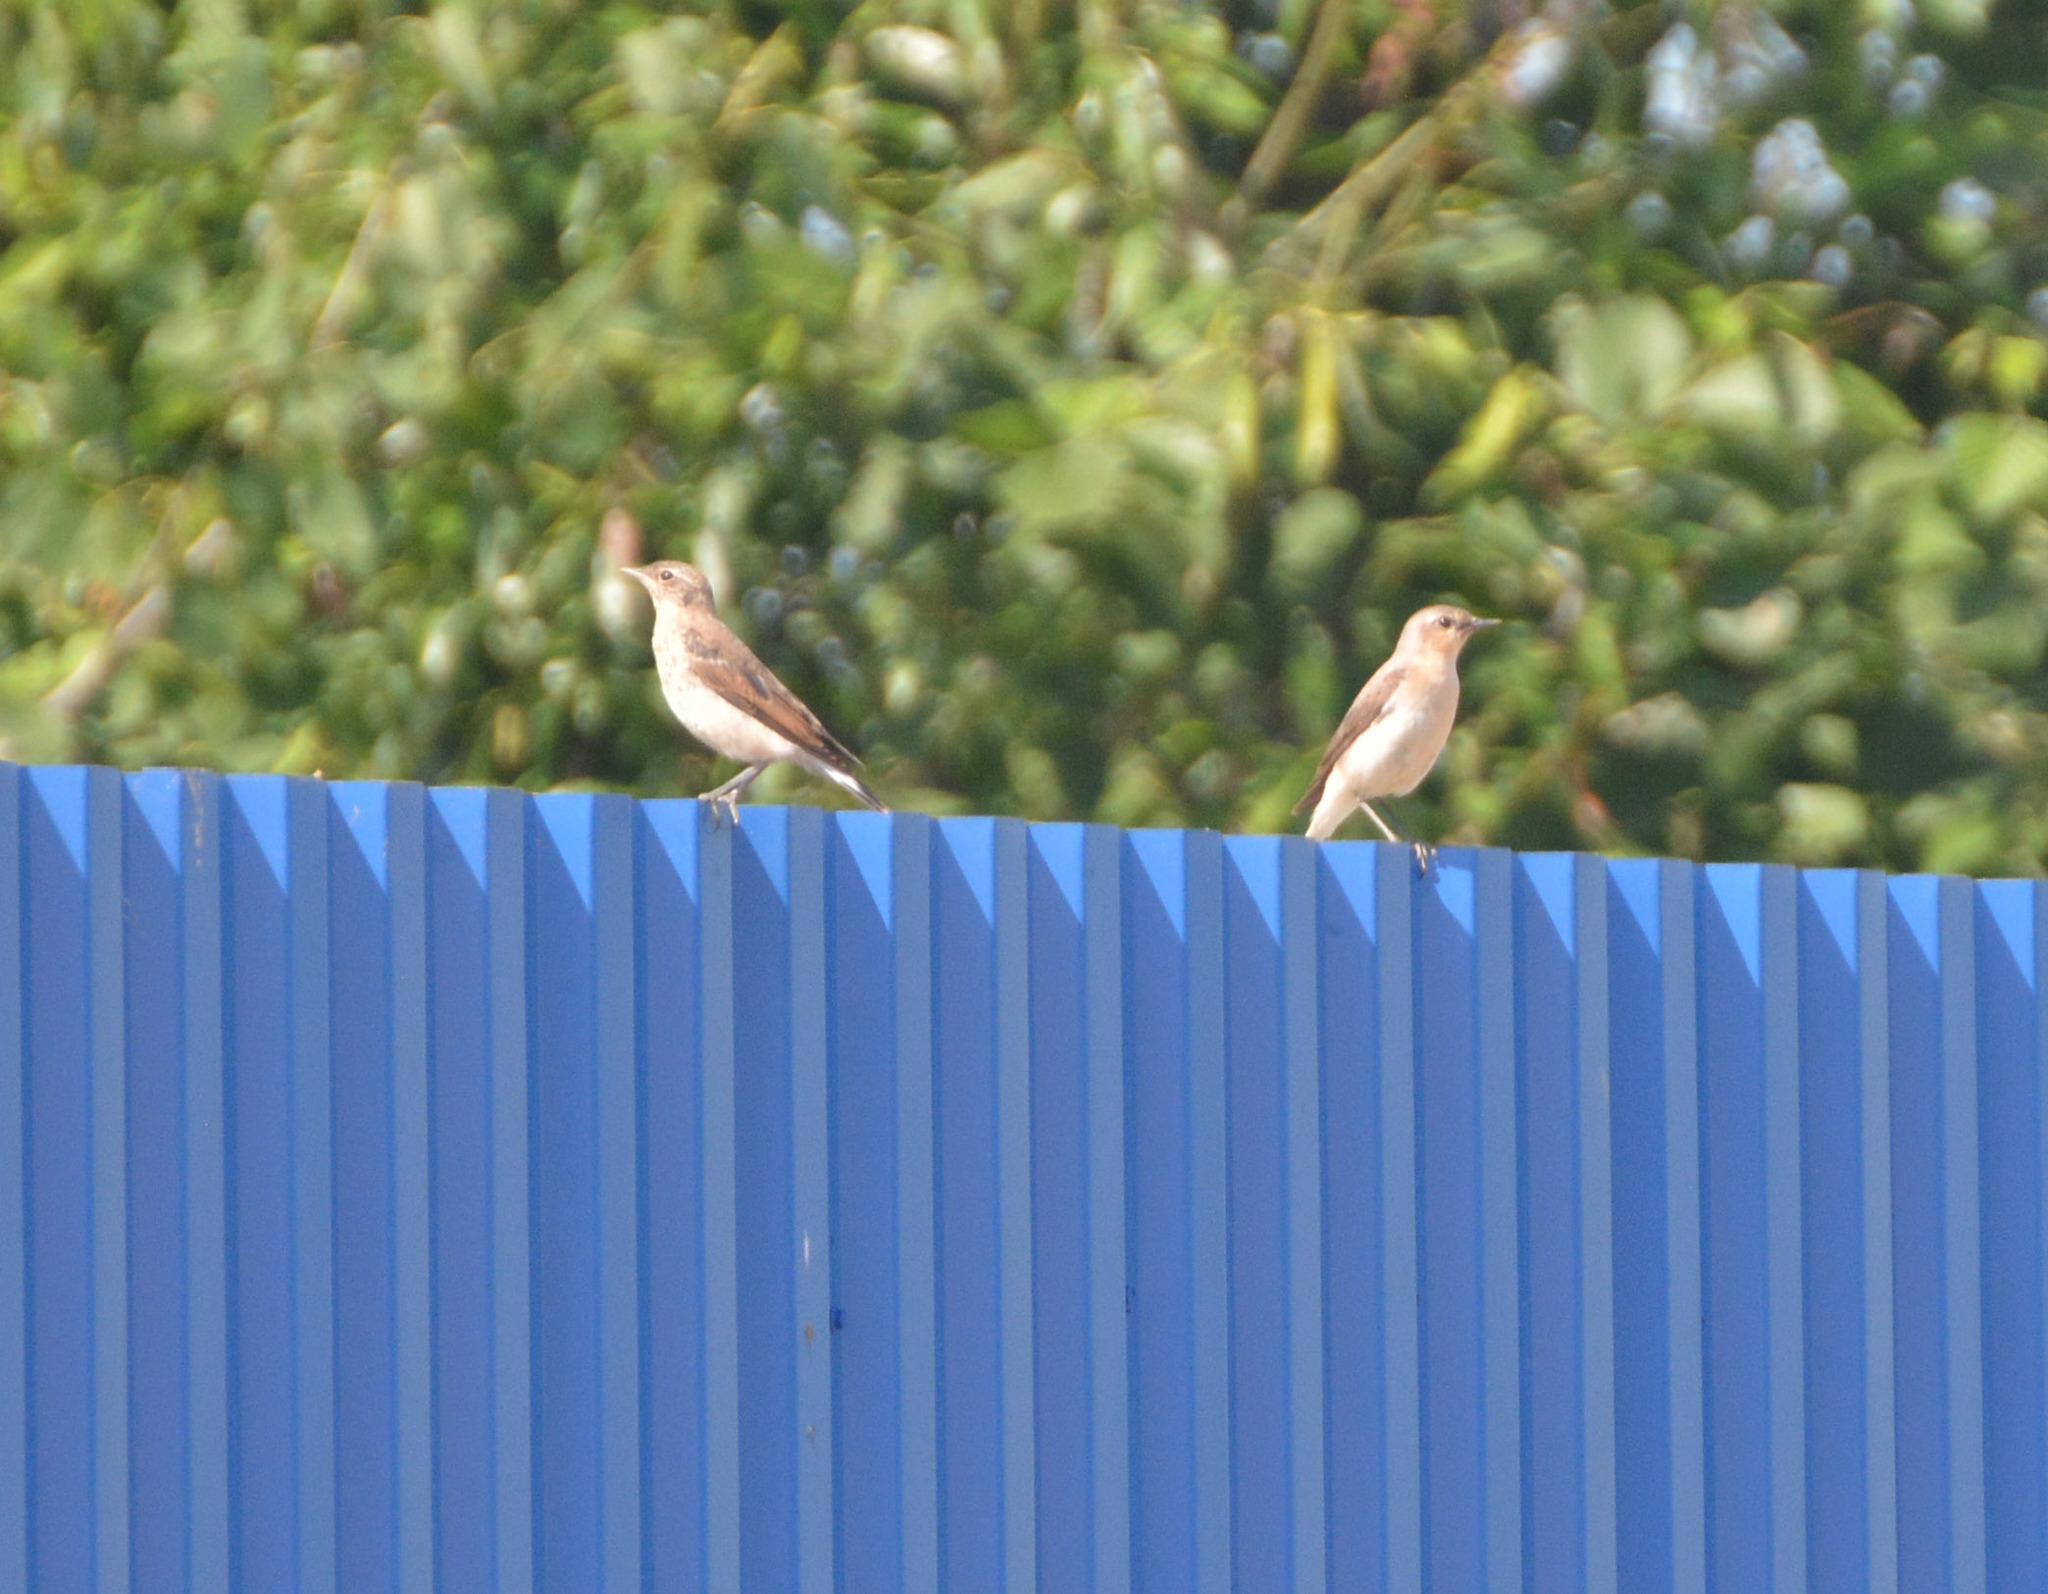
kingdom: Animalia
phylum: Chordata
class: Aves
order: Passeriformes
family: Muscicapidae
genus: Oenanthe
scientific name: Oenanthe oenanthe
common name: Northern wheatear
